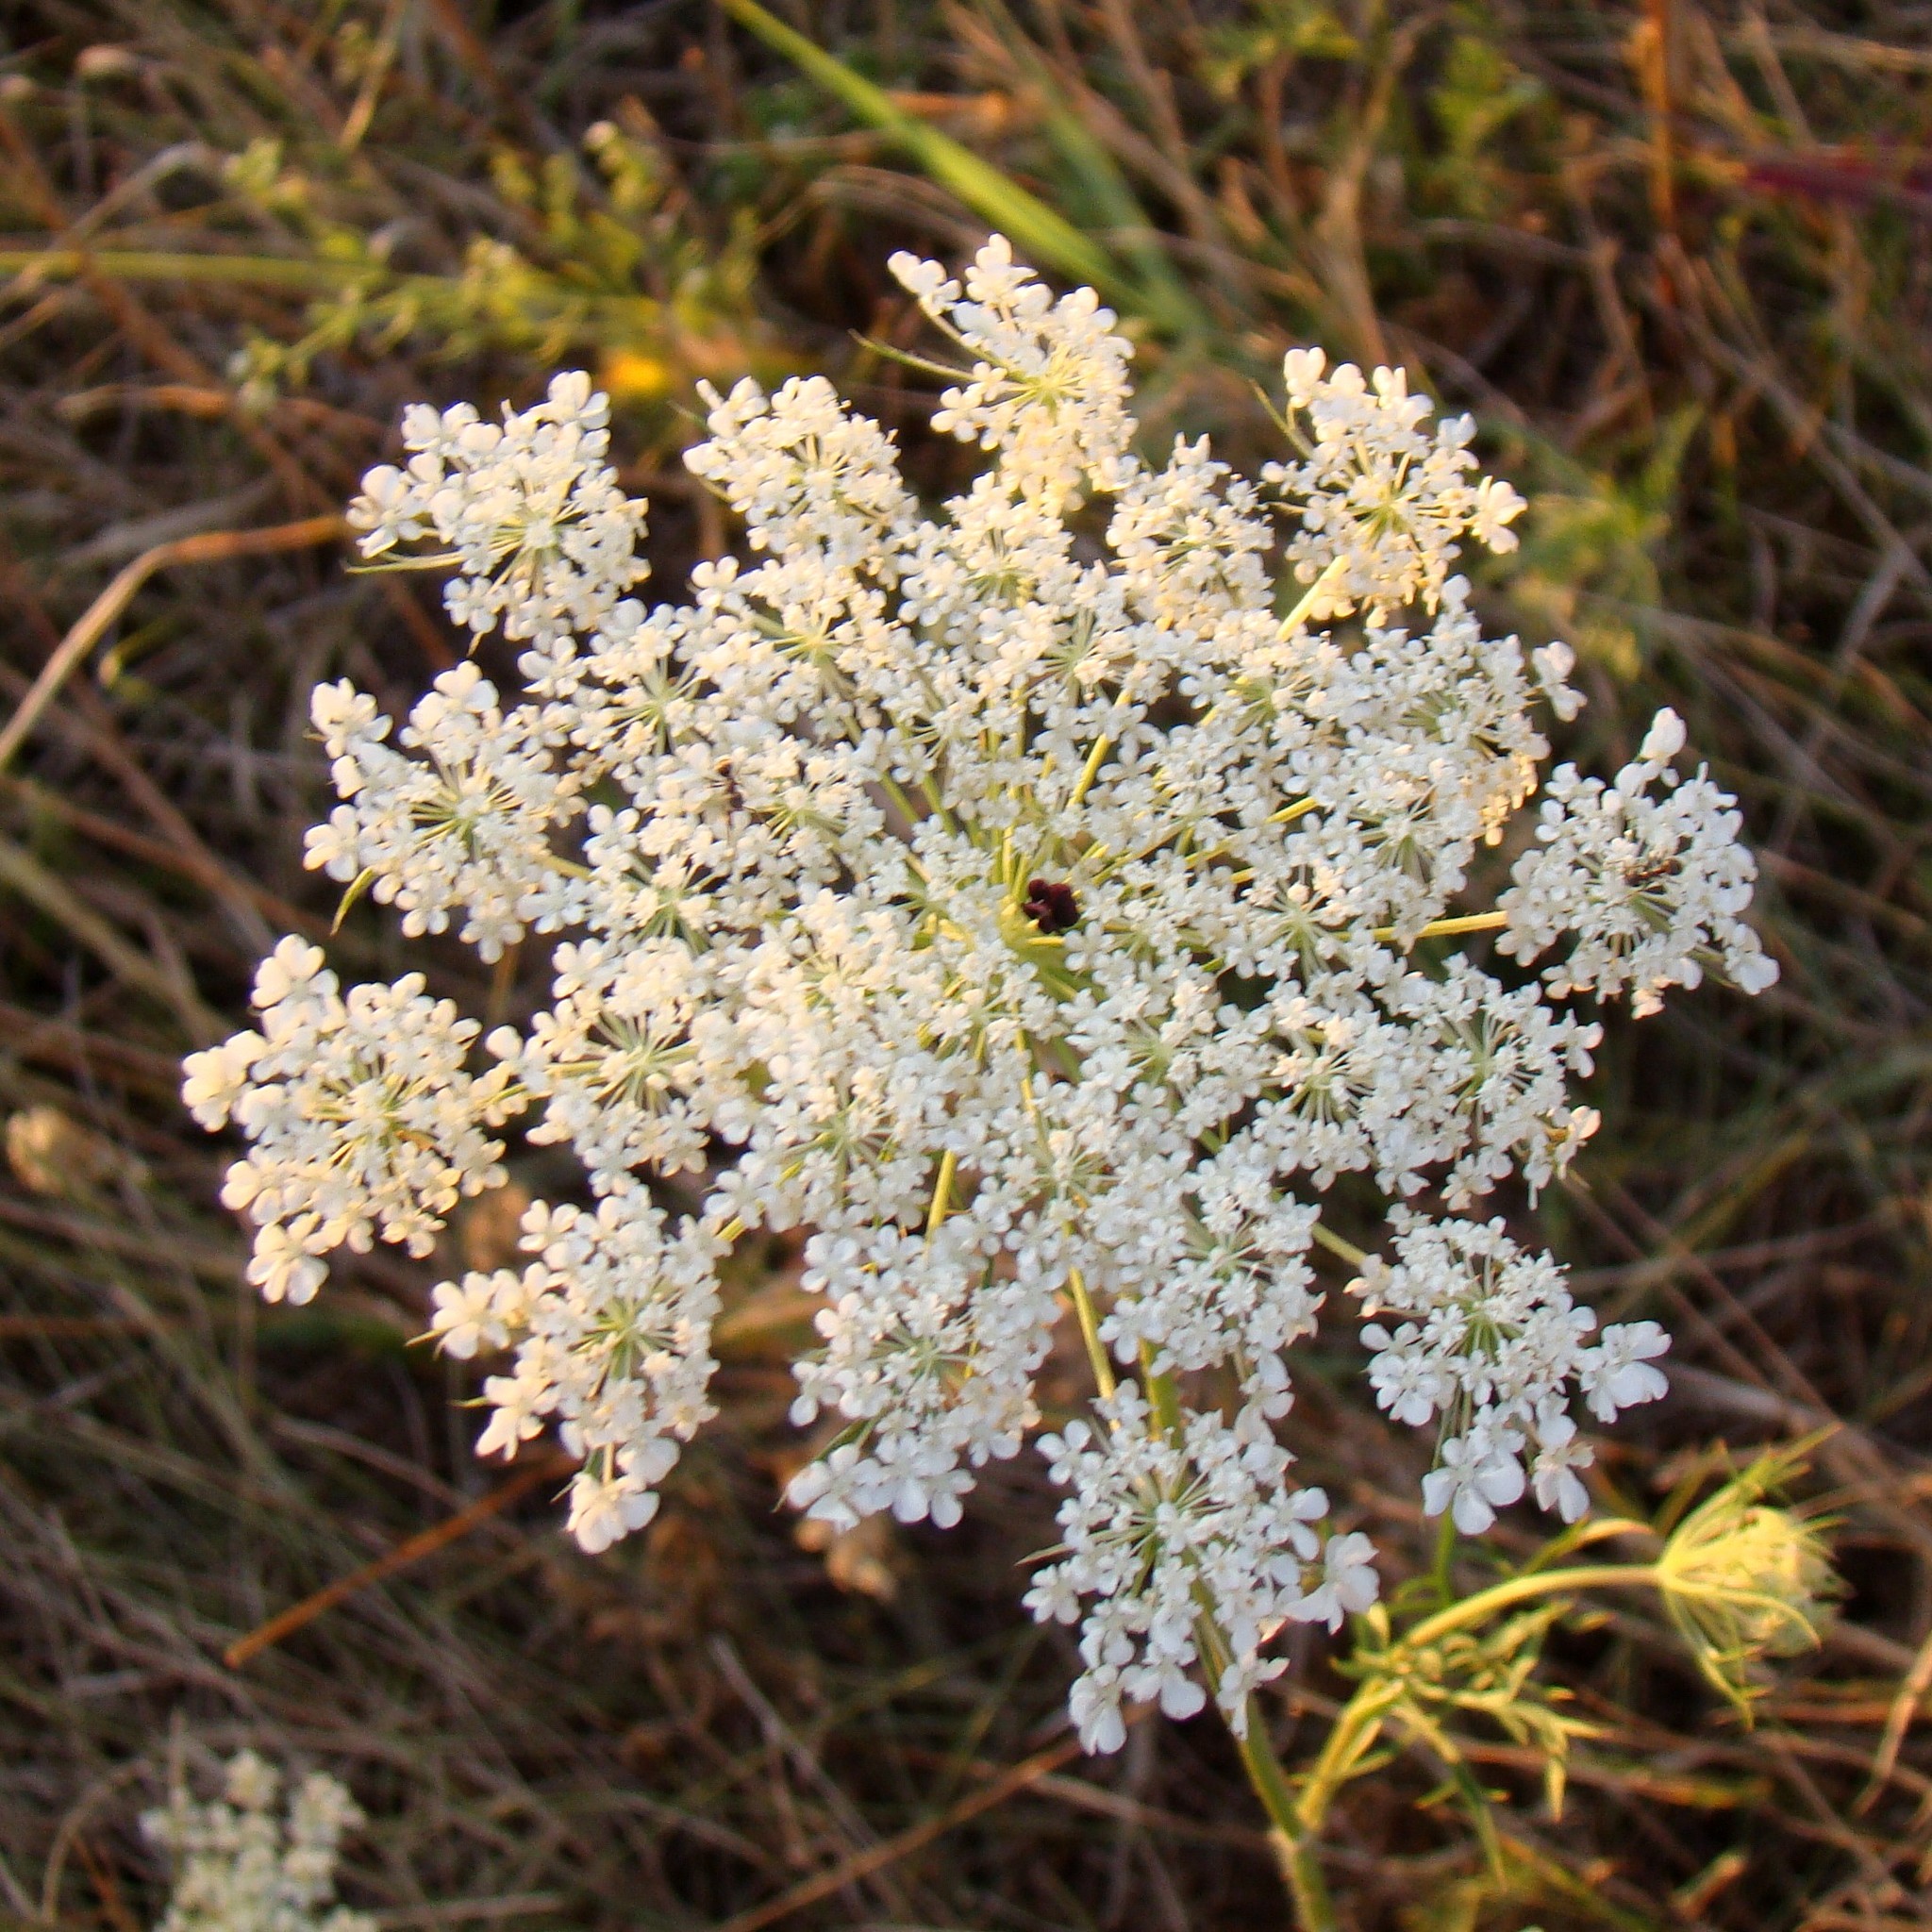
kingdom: Plantae
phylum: Tracheophyta
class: Magnoliopsida
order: Apiales
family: Apiaceae
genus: Daucus
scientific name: Daucus carota
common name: Wild carrot
